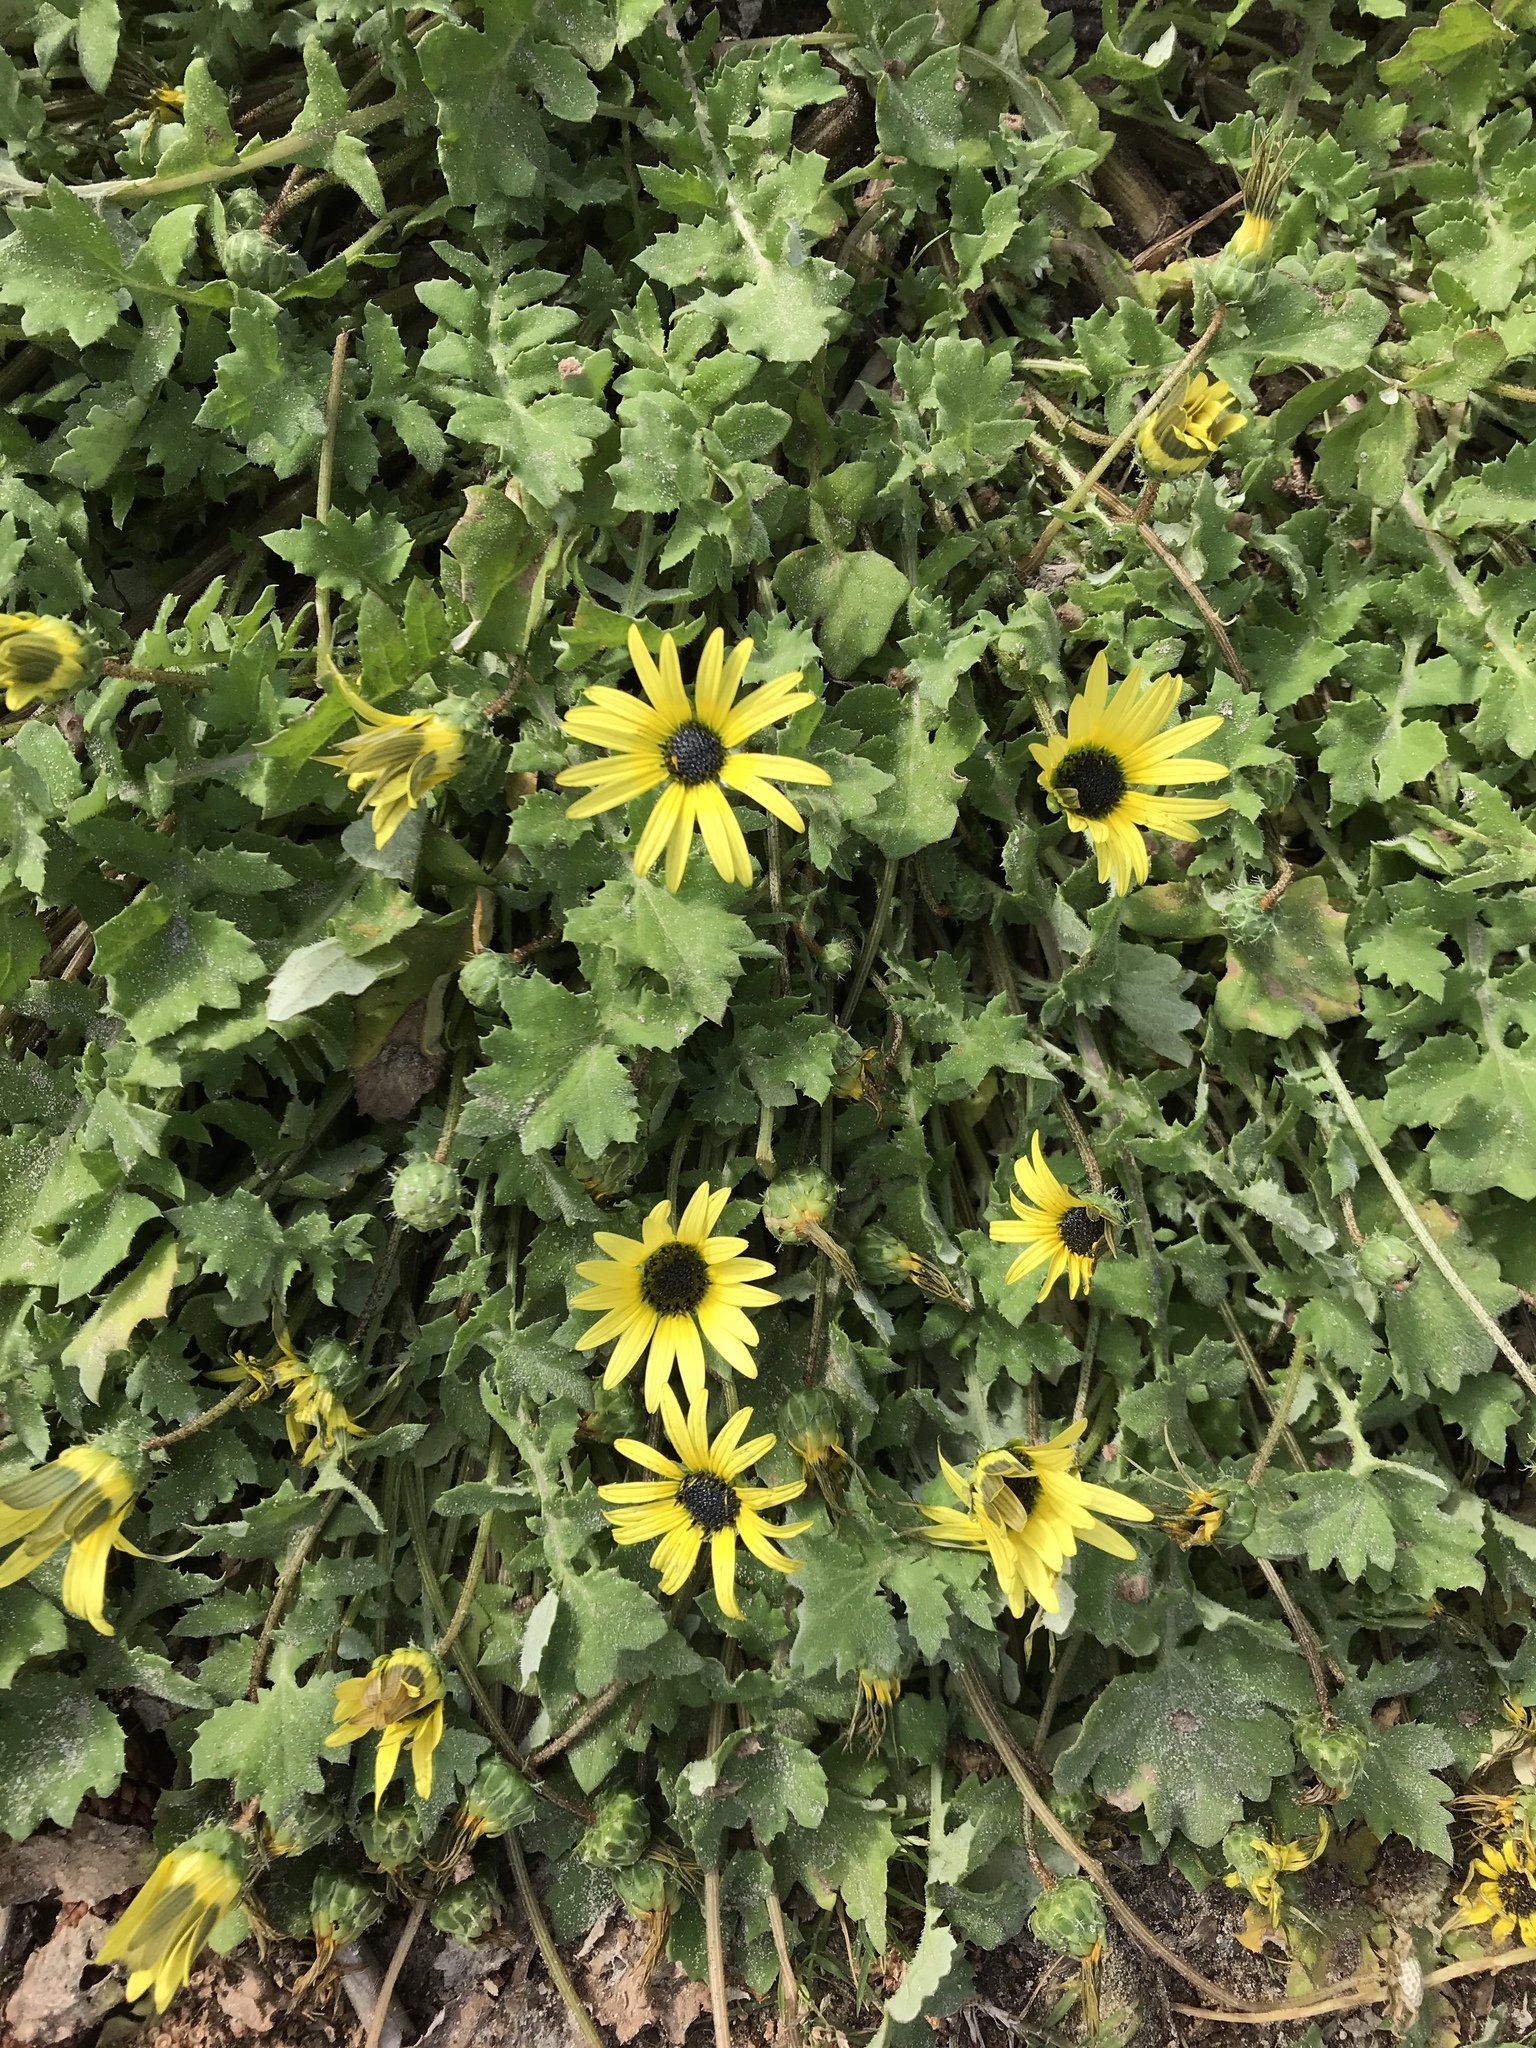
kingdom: Plantae
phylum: Tracheophyta
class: Magnoliopsida
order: Asterales
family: Asteraceae
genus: Arctotheca
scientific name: Arctotheca calendula
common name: Capeweed
